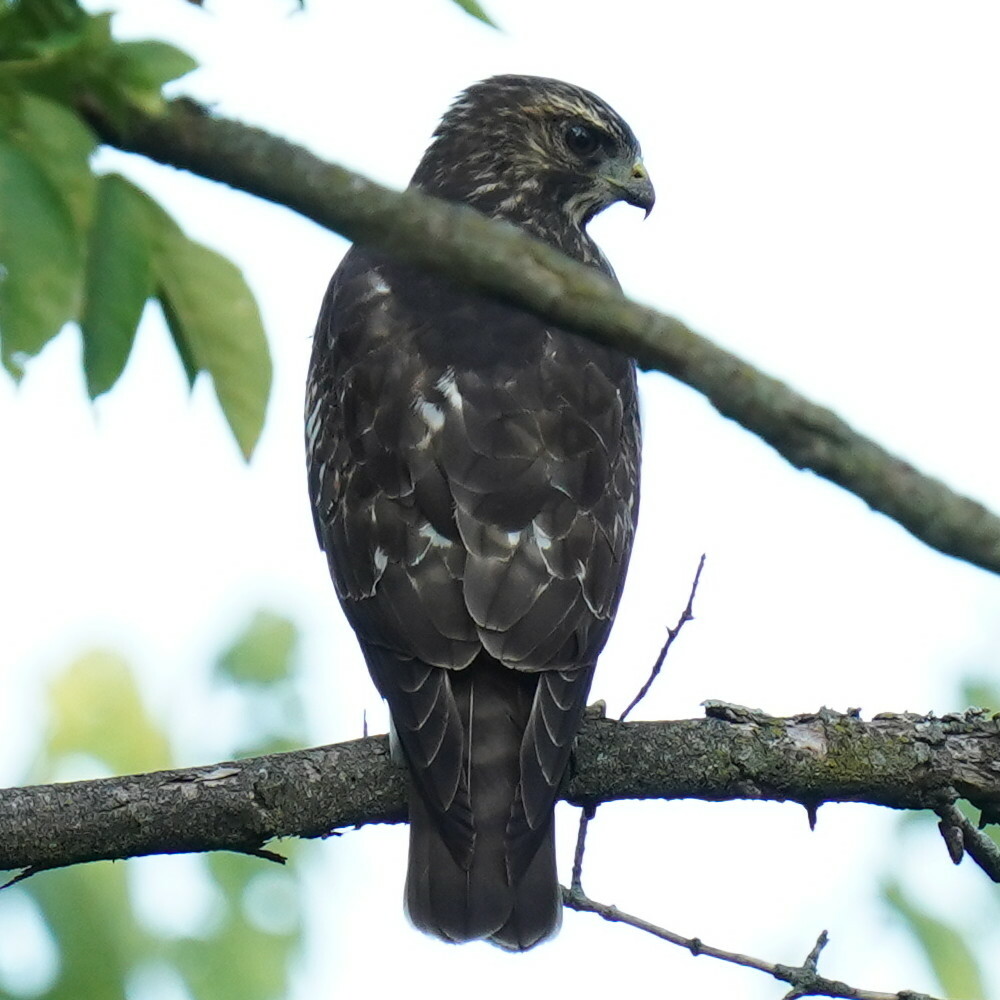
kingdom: Animalia
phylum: Chordata
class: Aves
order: Accipitriformes
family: Accipitridae
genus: Buteo
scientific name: Buteo platypterus
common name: Broad-winged hawk
